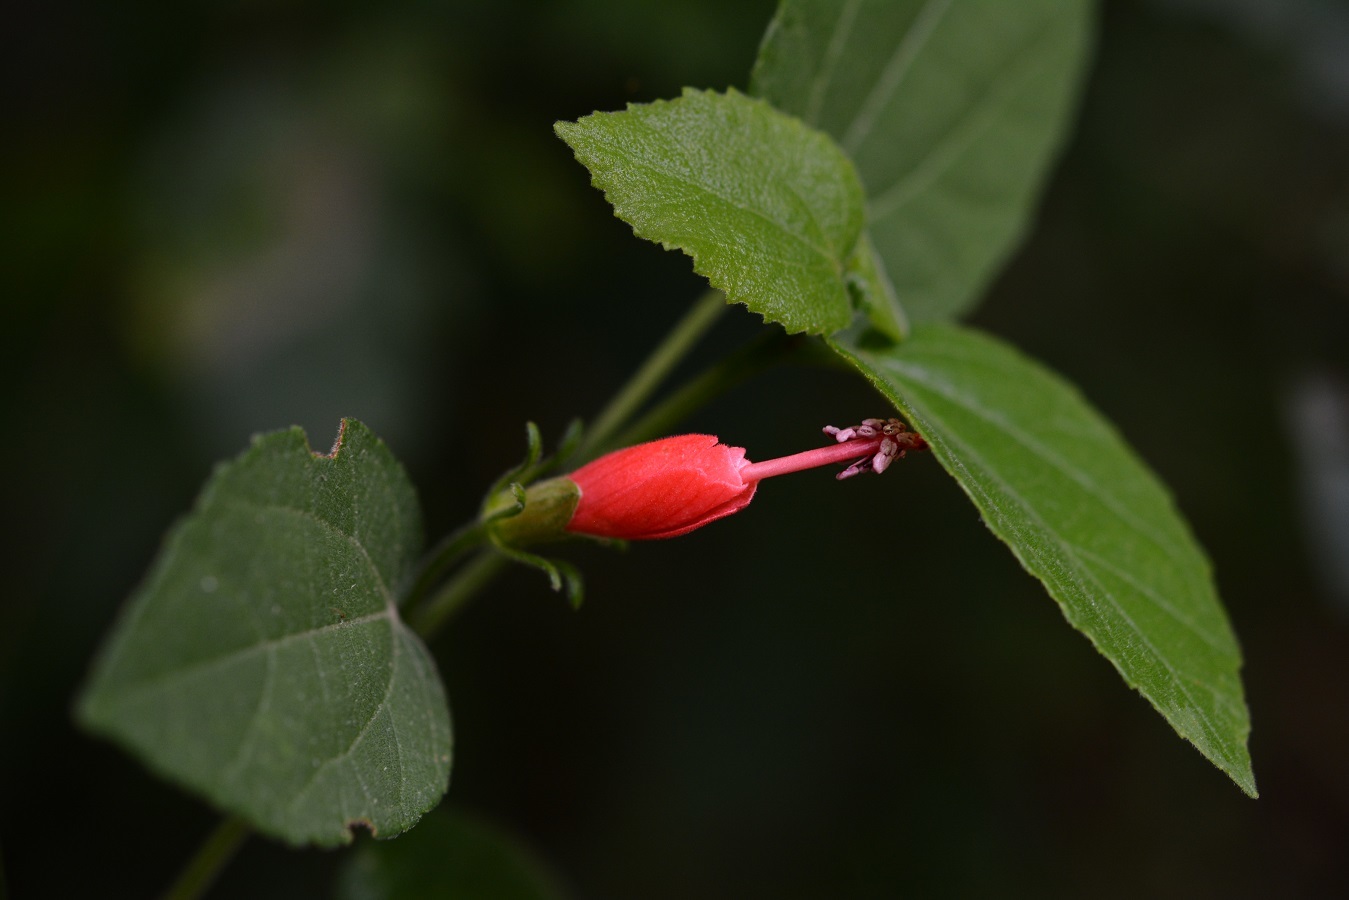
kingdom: Plantae
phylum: Tracheophyta
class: Magnoliopsida
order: Malvales
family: Malvaceae
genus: Malvaviscus
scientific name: Malvaviscus arboreus
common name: Wax mallow
